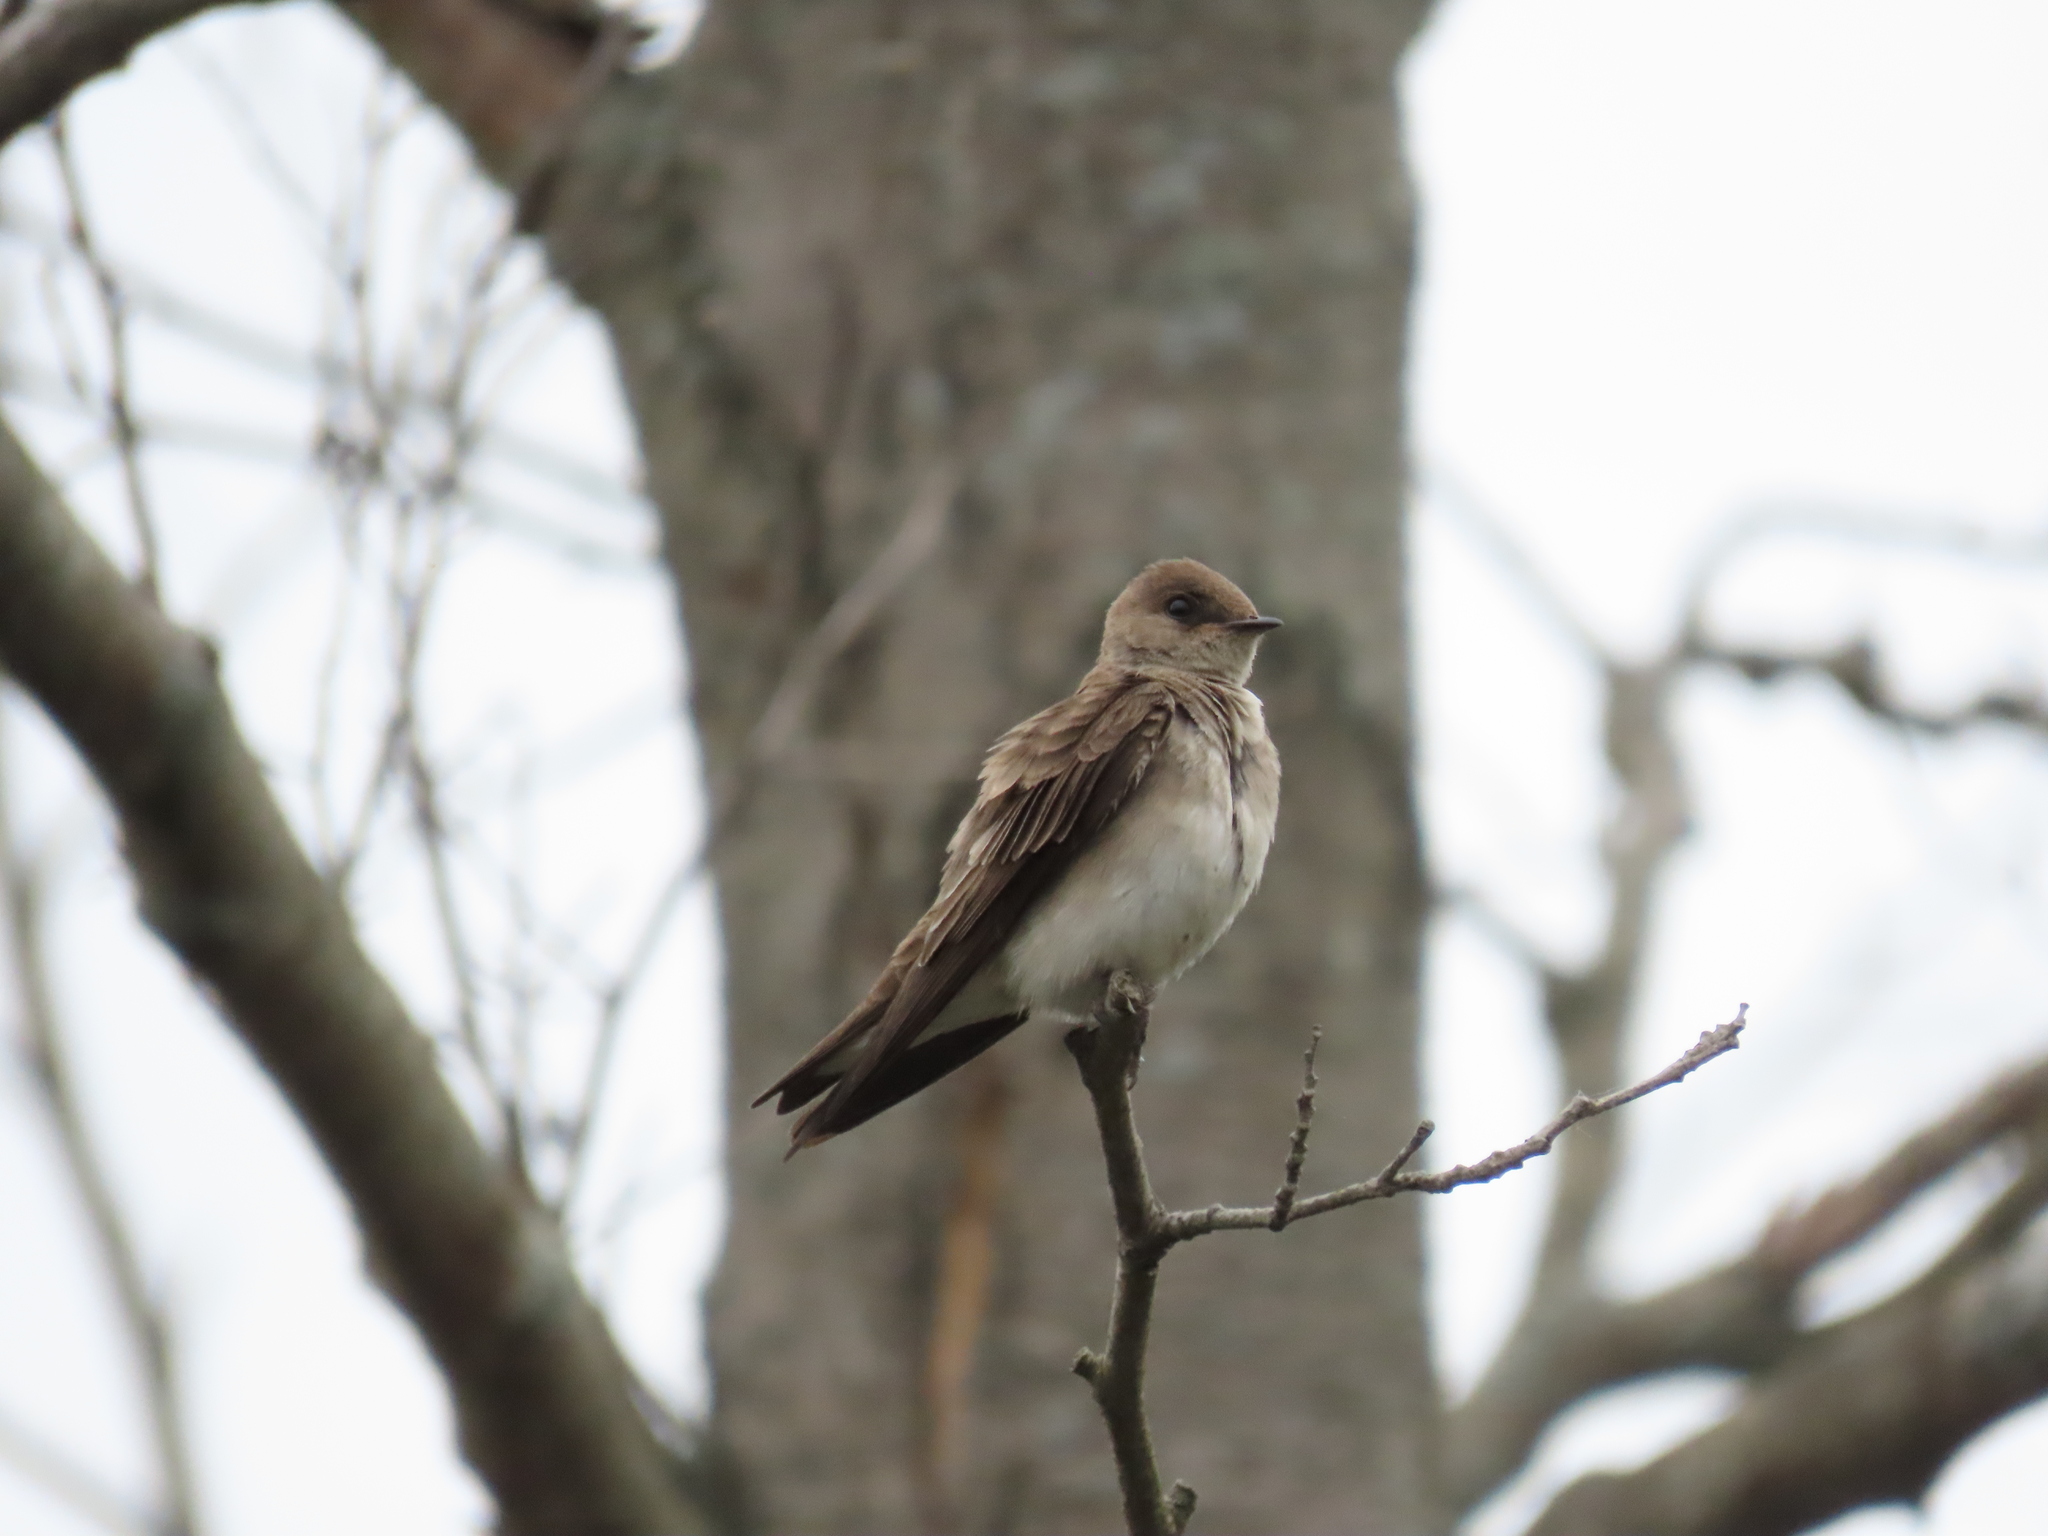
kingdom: Animalia
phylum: Chordata
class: Aves
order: Passeriformes
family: Hirundinidae
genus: Stelgidopteryx
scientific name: Stelgidopteryx serripennis
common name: Northern rough-winged swallow
